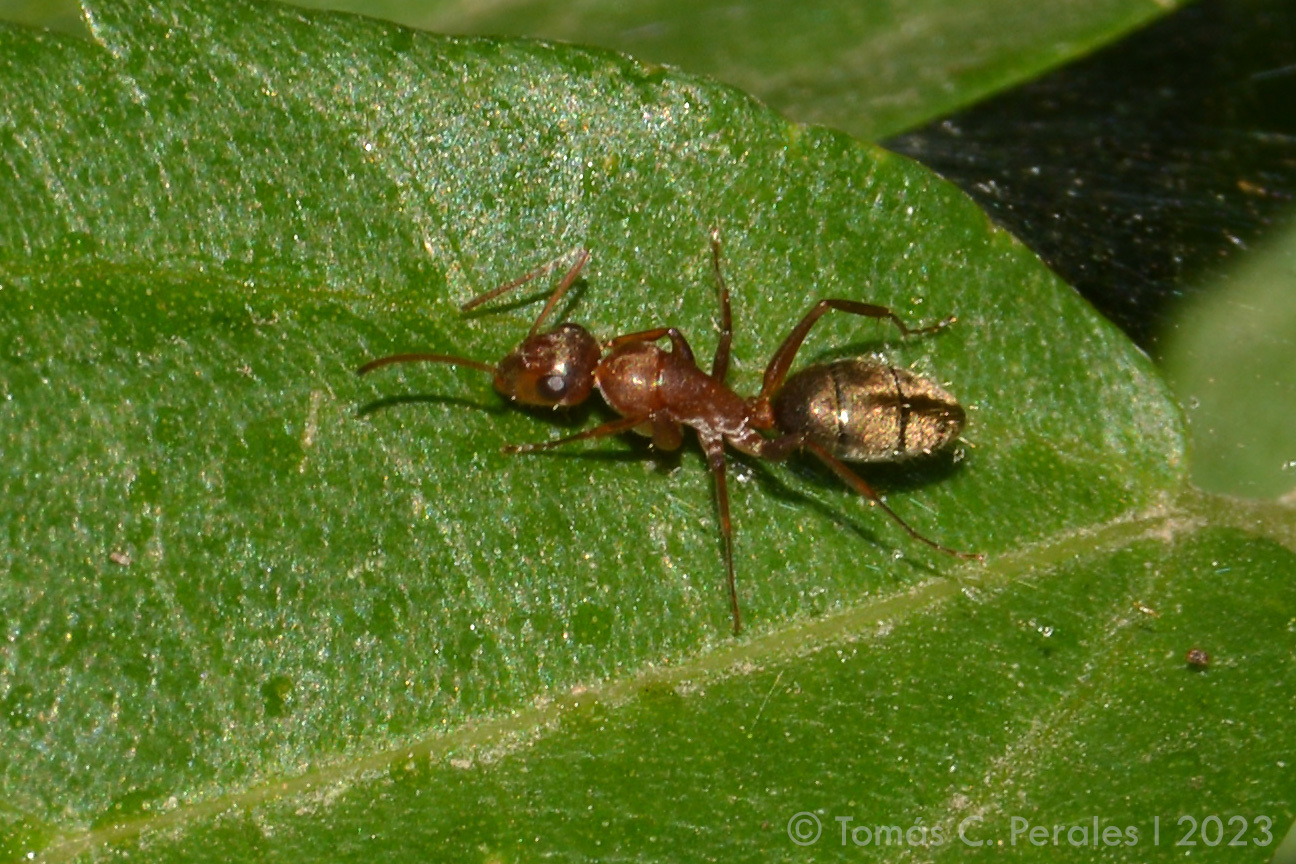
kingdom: Animalia
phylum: Arthropoda
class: Insecta
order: Hymenoptera
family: Formicidae
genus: Camponotus
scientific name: Camponotus crispulus
